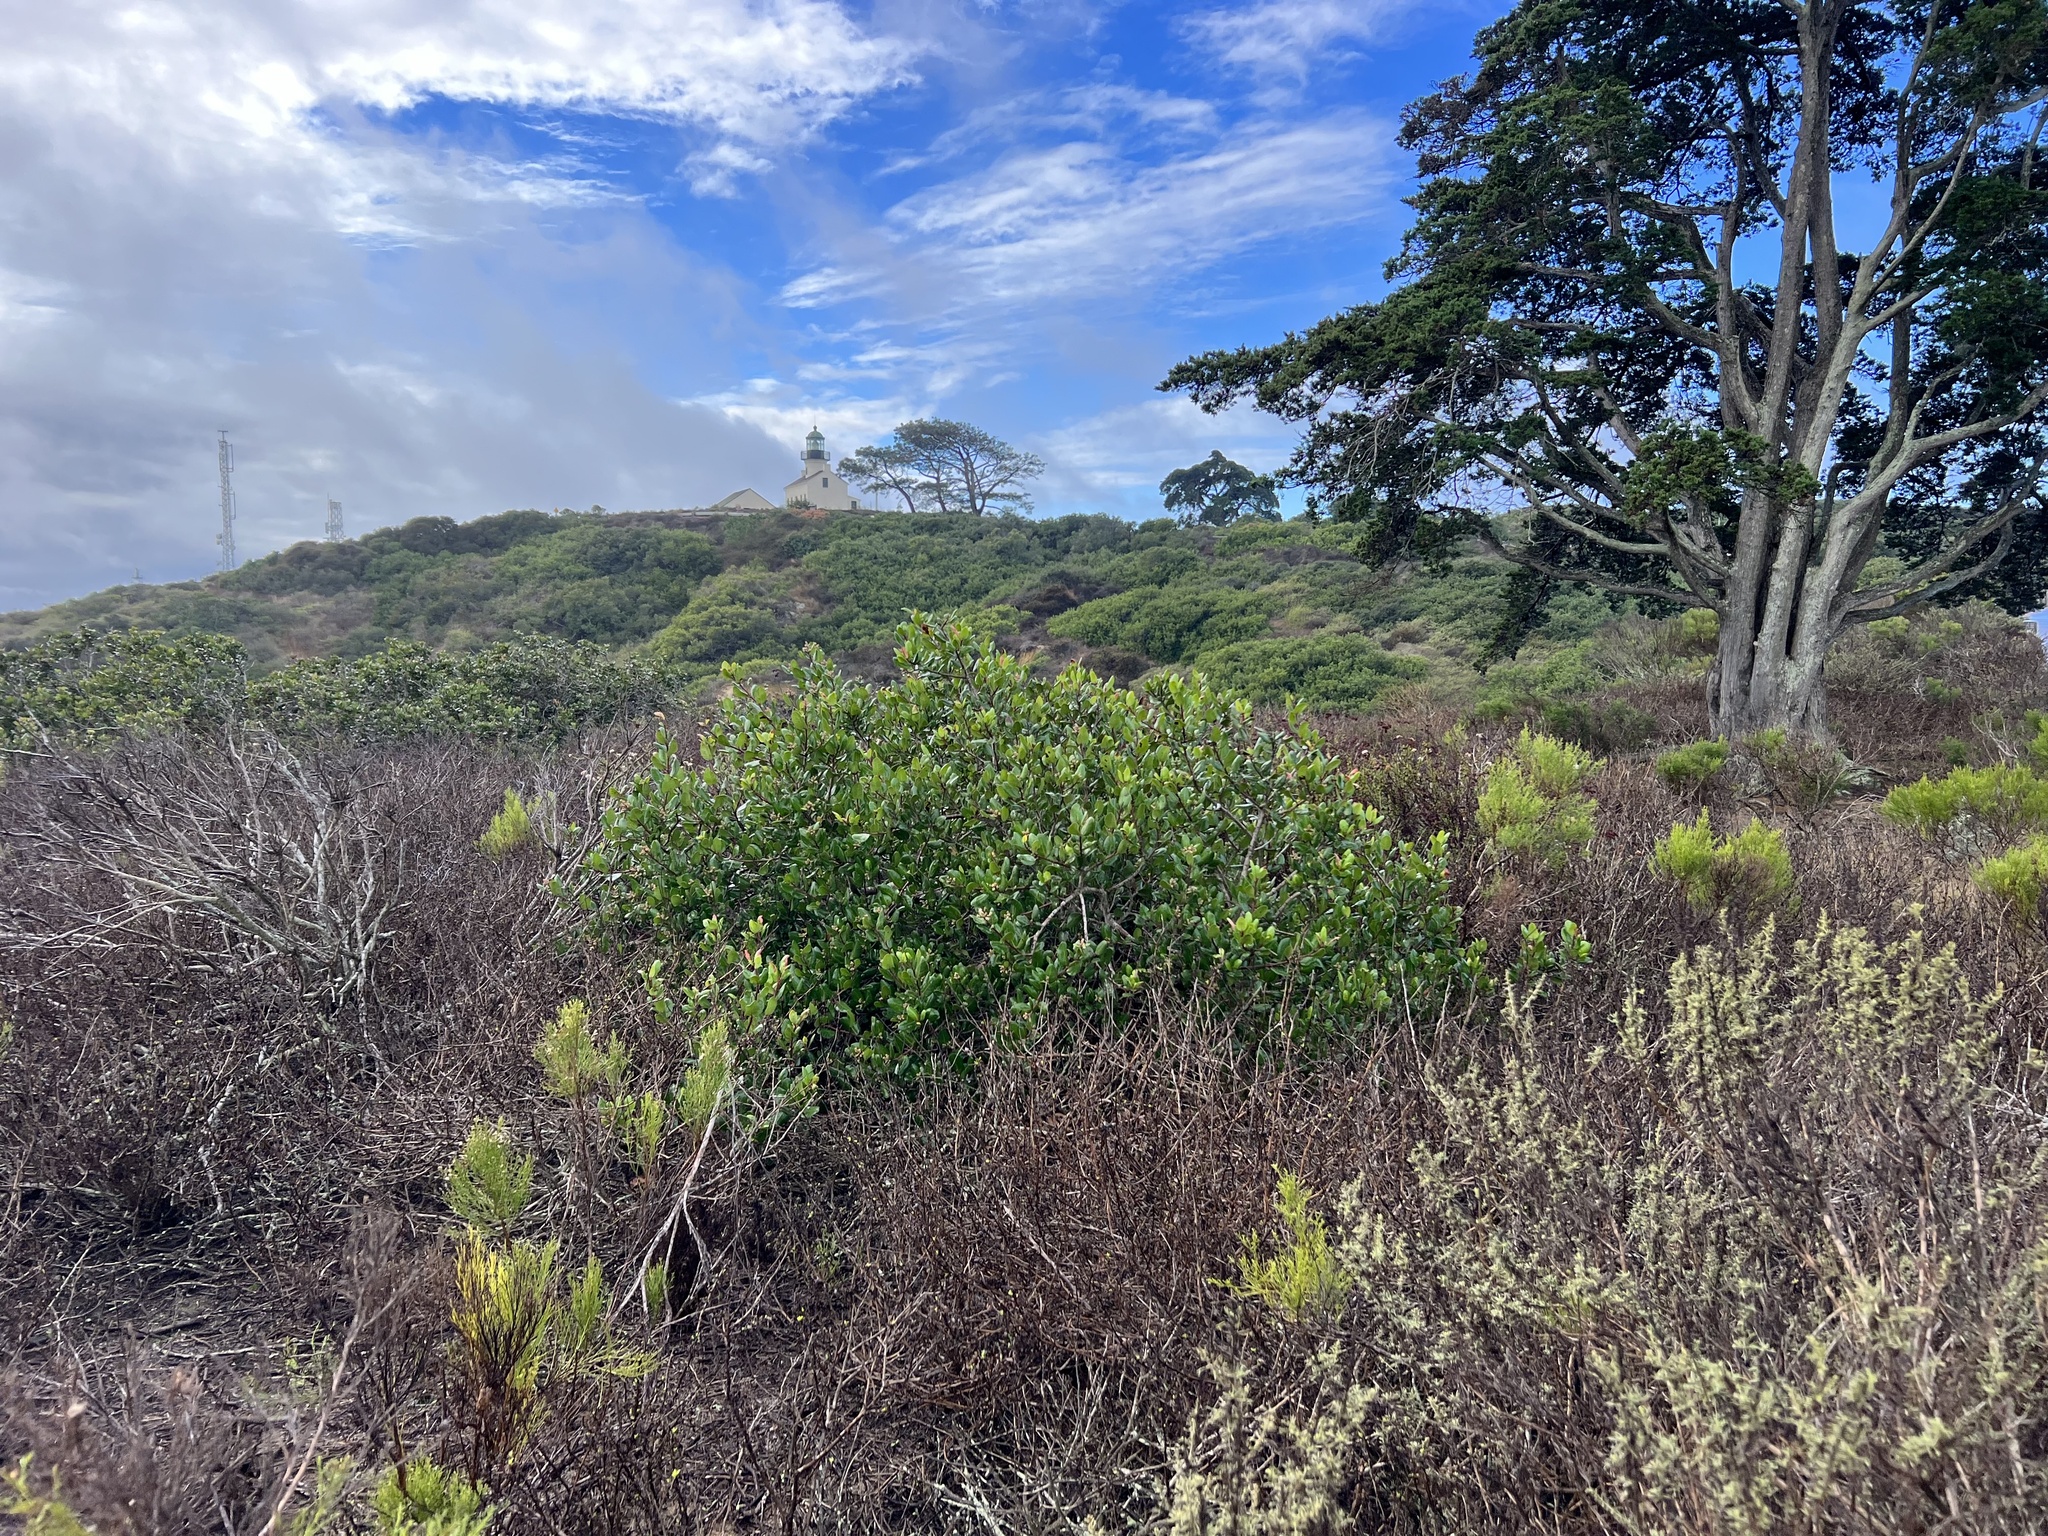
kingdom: Plantae
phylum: Tracheophyta
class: Magnoliopsida
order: Sapindales
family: Anacardiaceae
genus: Rhus
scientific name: Rhus integrifolia
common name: Lemonade sumac
